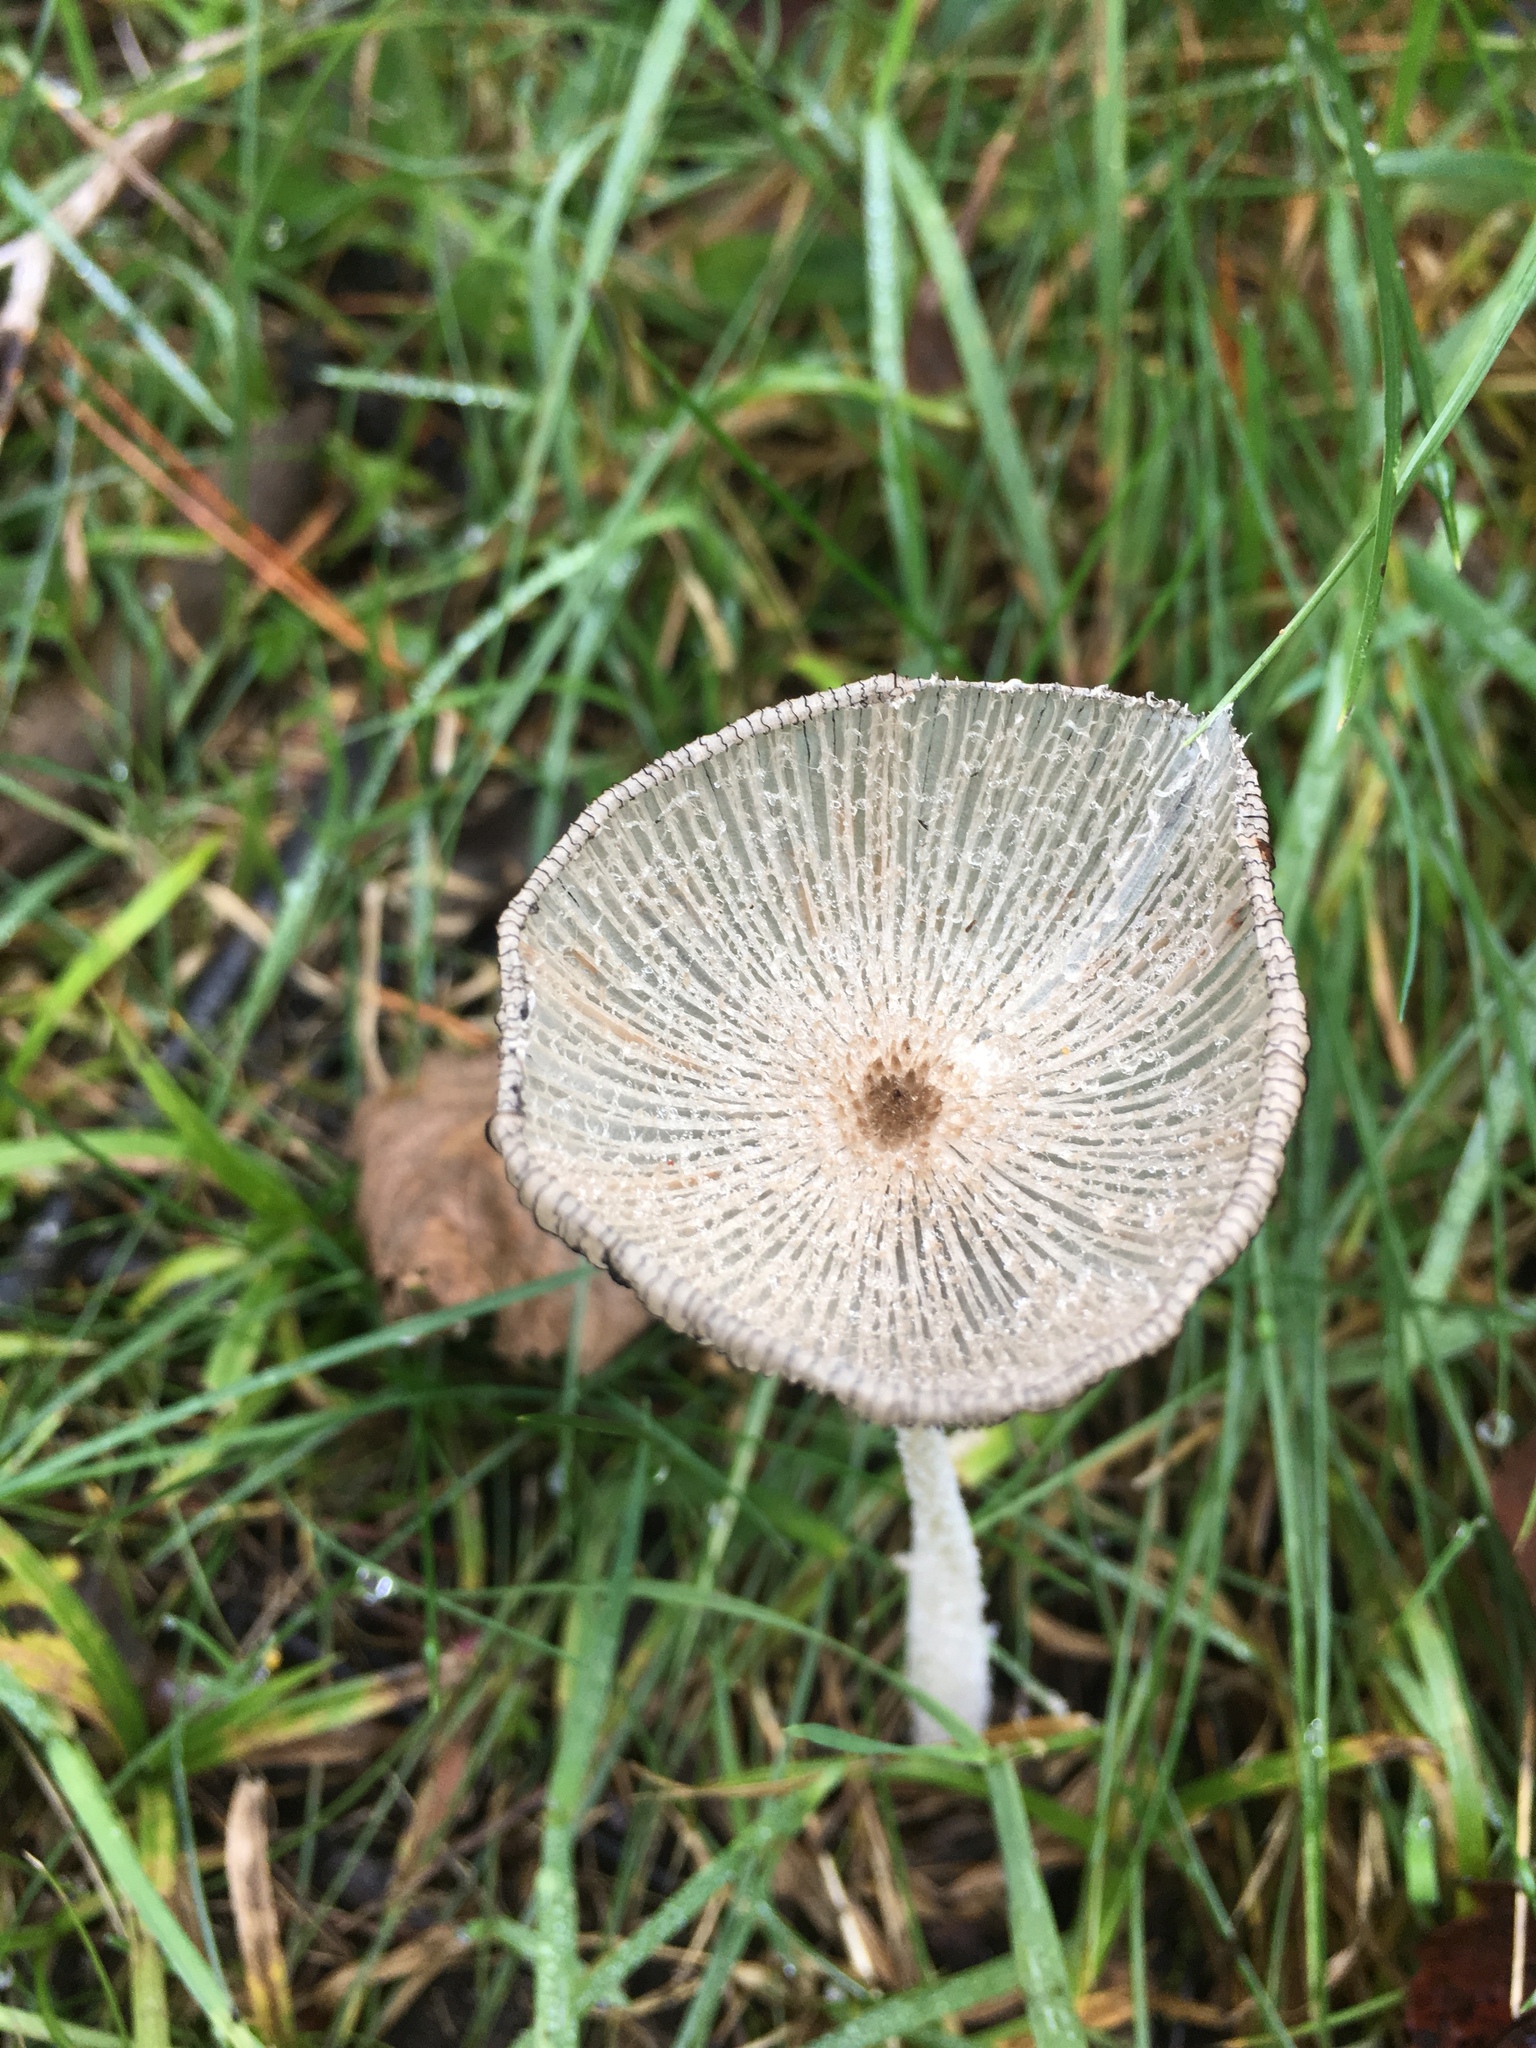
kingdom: Fungi
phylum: Basidiomycota
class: Agaricomycetes
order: Agaricales
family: Psathyrellaceae
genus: Coprinopsis
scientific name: Coprinopsis lagopus
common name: Hare'sfoot inkcap
